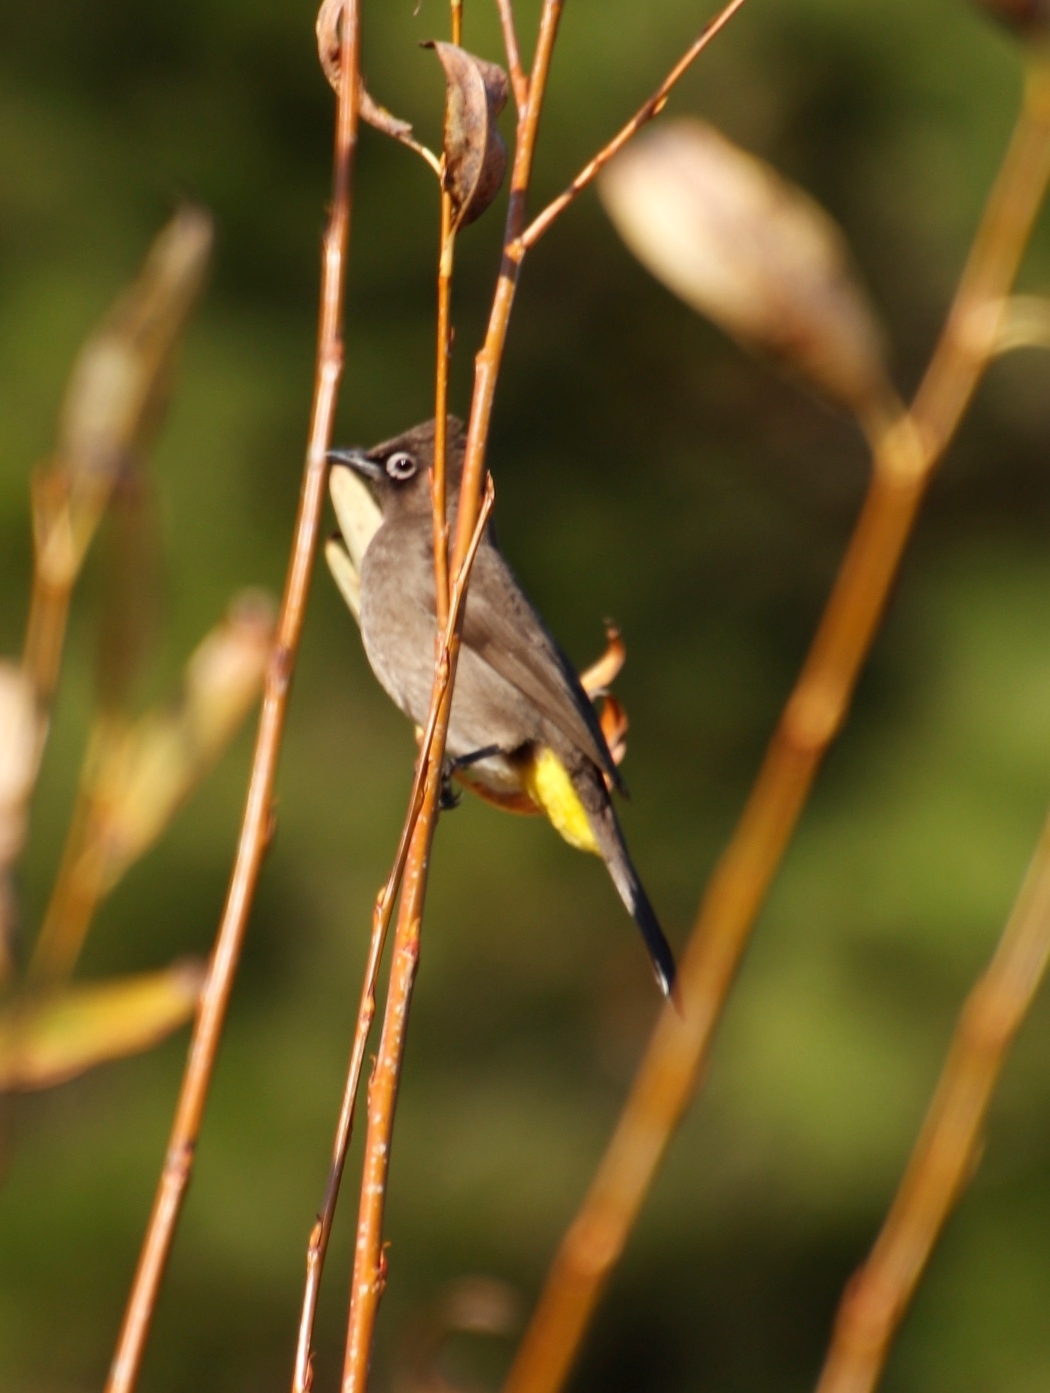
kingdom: Animalia
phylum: Chordata
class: Aves
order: Passeriformes
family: Pycnonotidae
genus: Pycnonotus
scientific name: Pycnonotus capensis
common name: Cape bulbul
